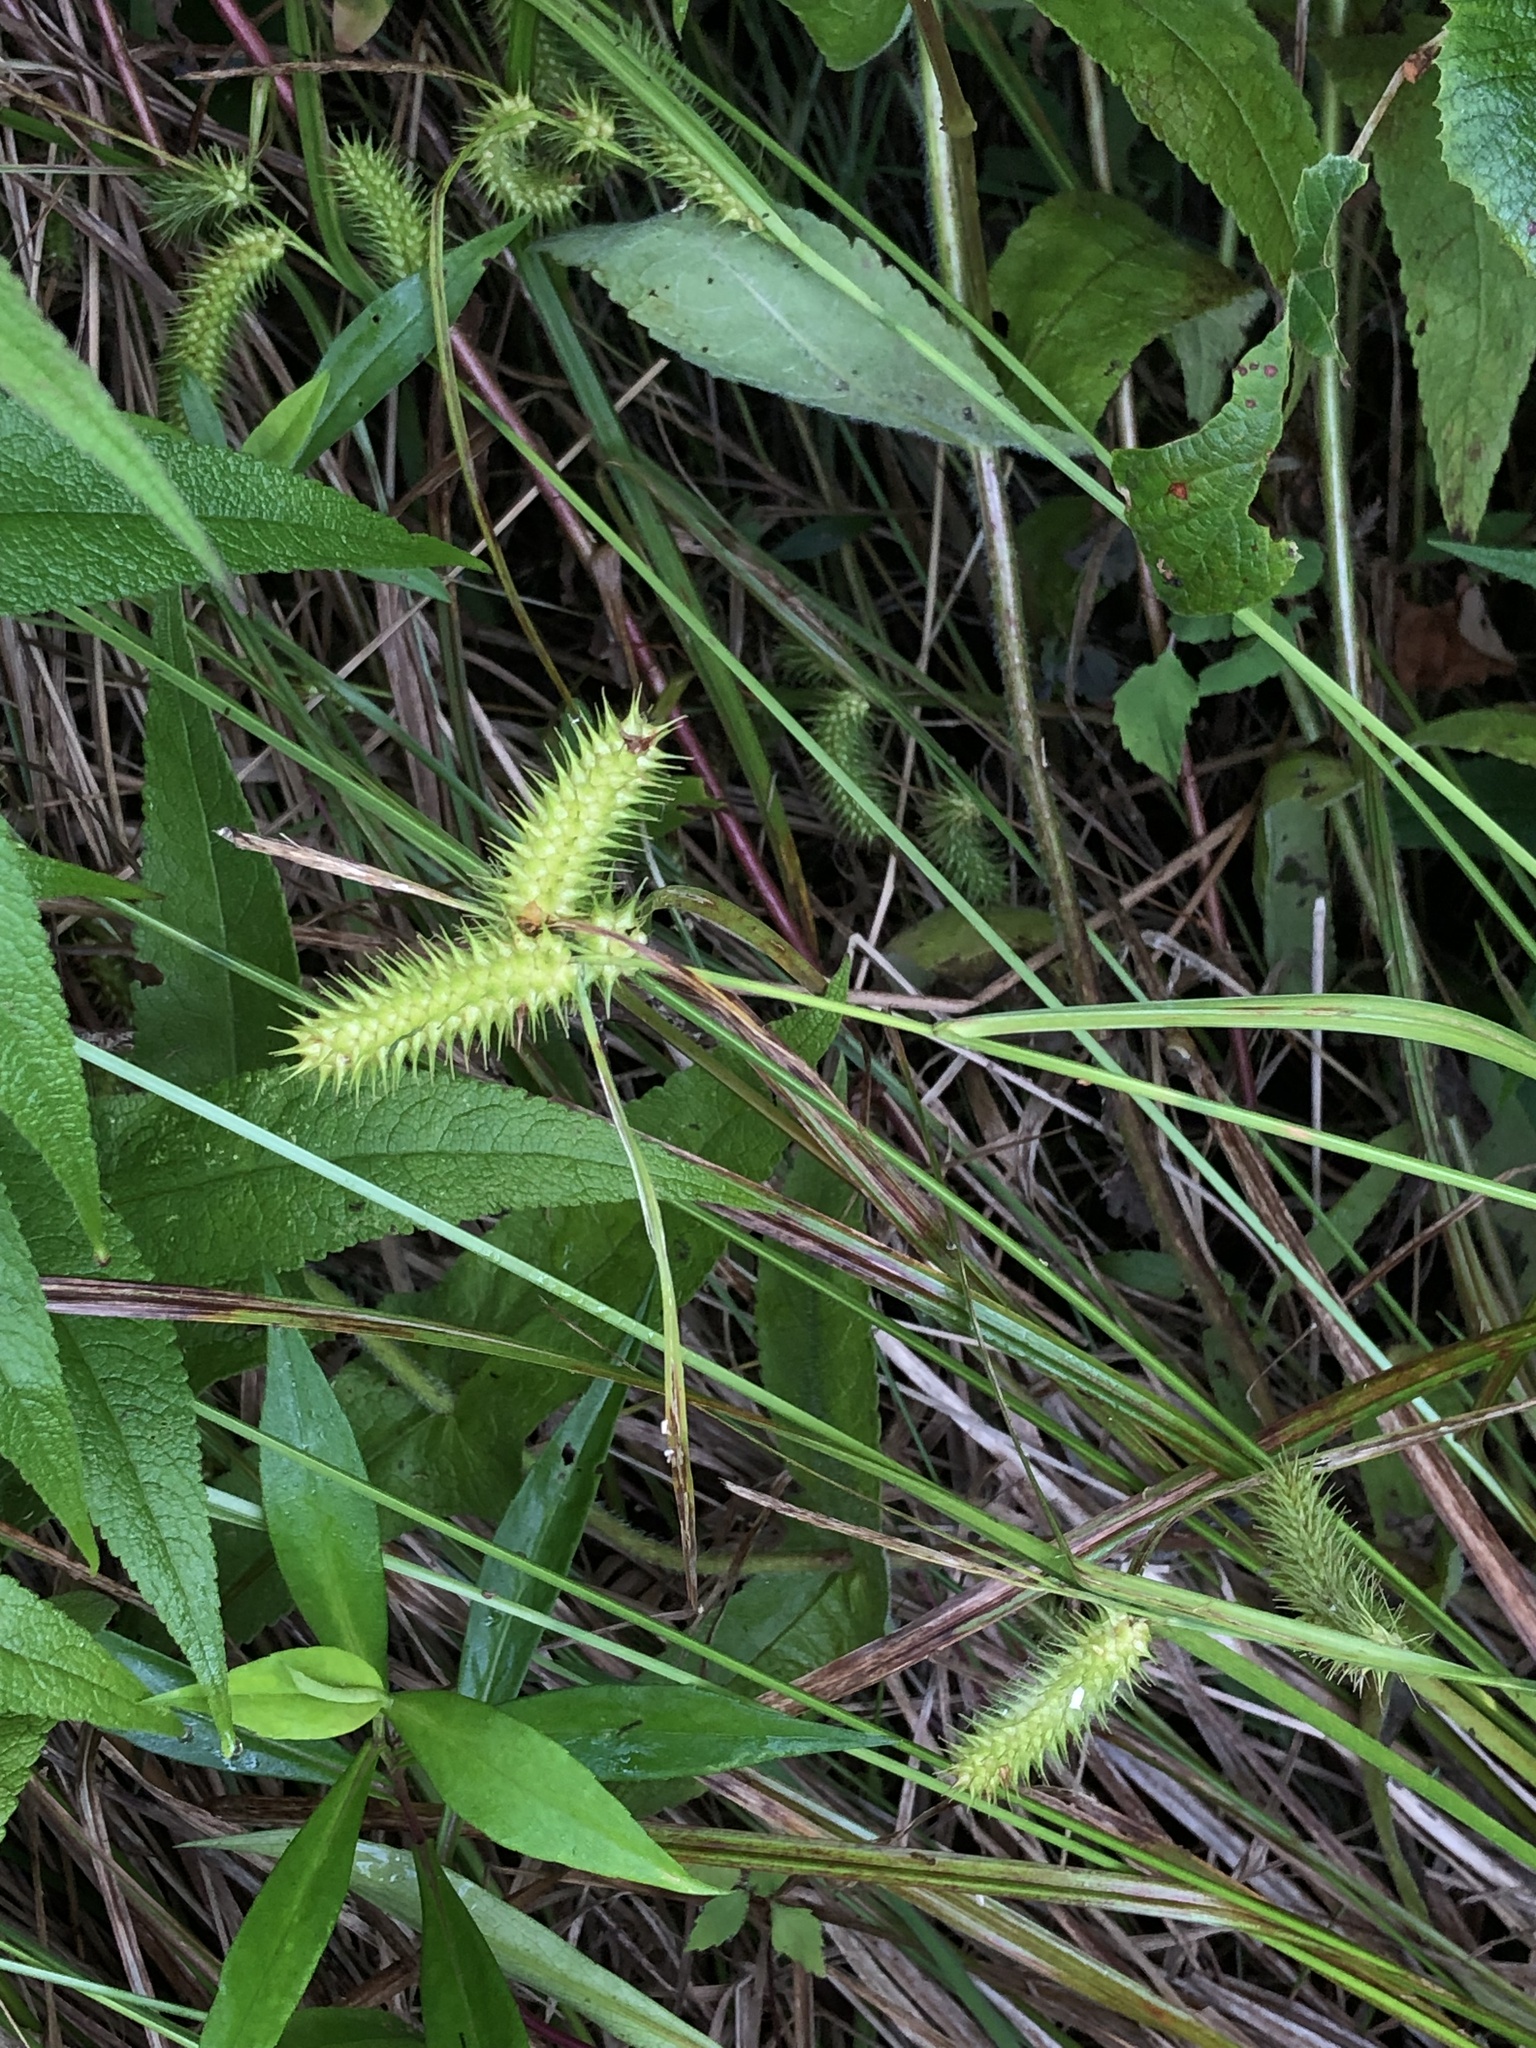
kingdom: Plantae
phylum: Tracheophyta
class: Liliopsida
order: Poales
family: Cyperaceae
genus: Carex
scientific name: Carex lurida
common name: Sallow sedge
